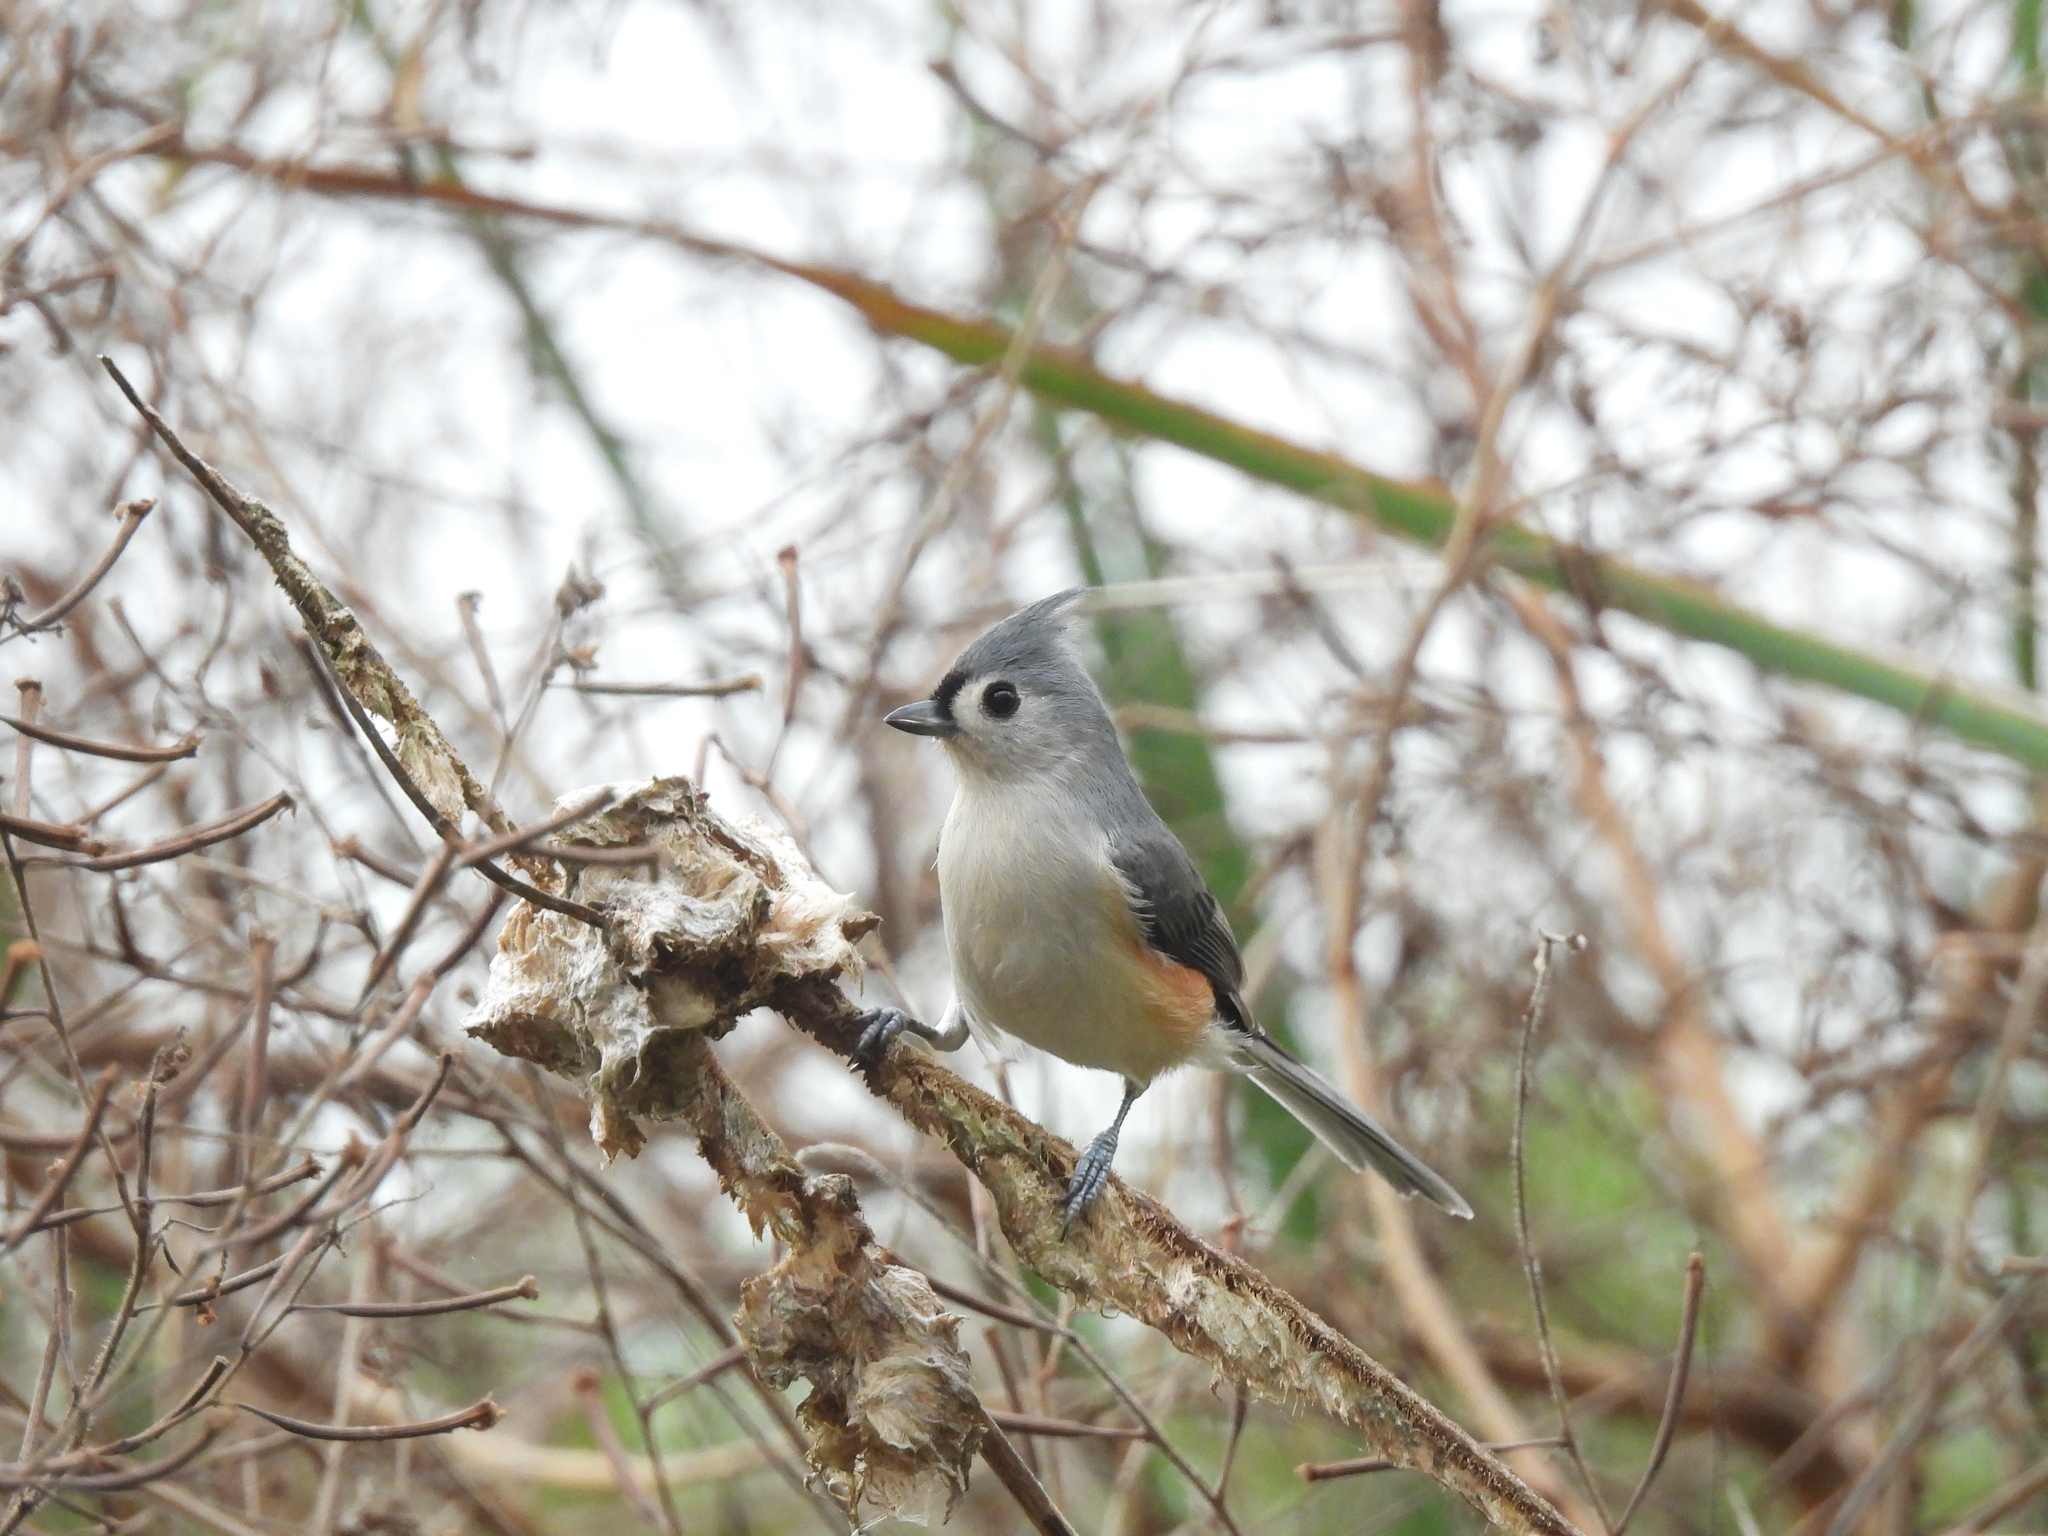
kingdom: Animalia
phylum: Chordata
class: Aves
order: Passeriformes
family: Paridae
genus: Baeolophus
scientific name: Baeolophus bicolor
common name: Tufted titmouse
